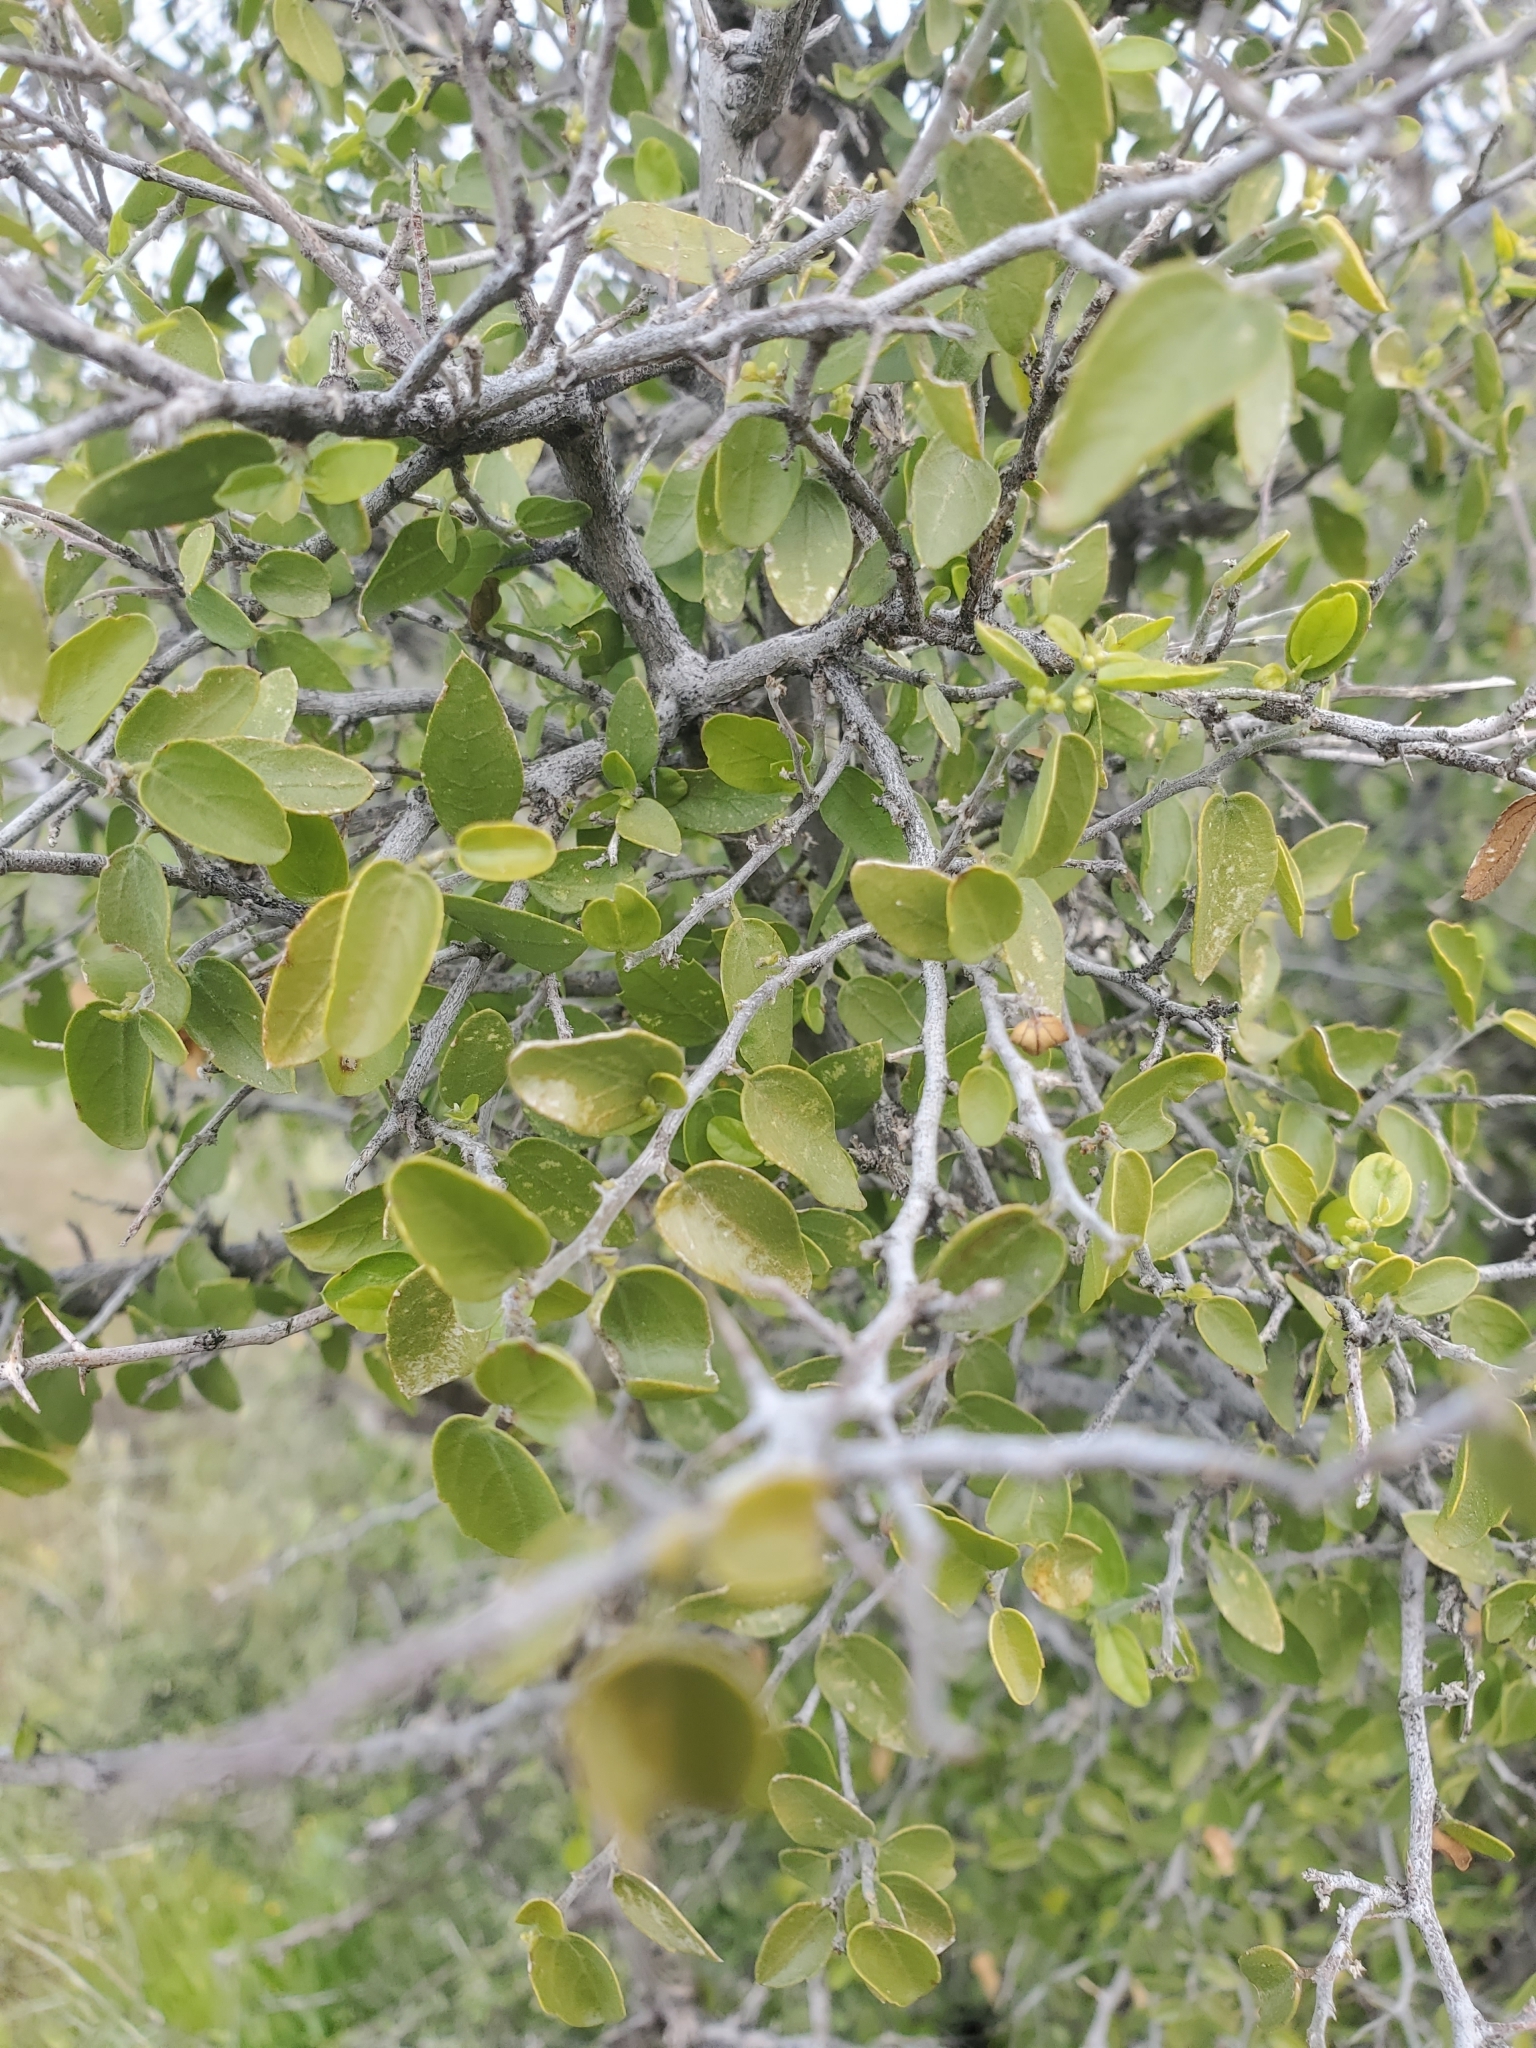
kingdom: Plantae
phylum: Tracheophyta
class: Magnoliopsida
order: Rosales
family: Cannabaceae
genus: Celtis
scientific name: Celtis pallida
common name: Desert hackberry
